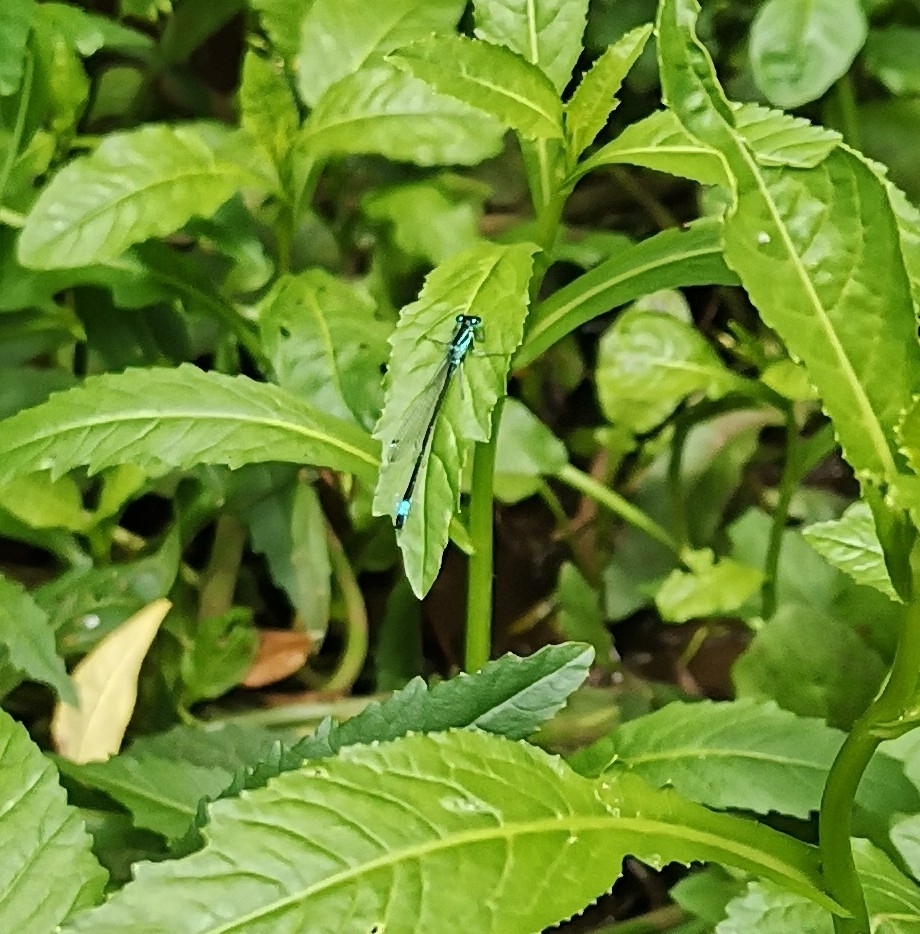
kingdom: Animalia
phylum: Arthropoda
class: Insecta
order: Odonata
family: Coenagrionidae
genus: Ischnura
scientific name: Ischnura elegans
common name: Blue-tailed damselfly
